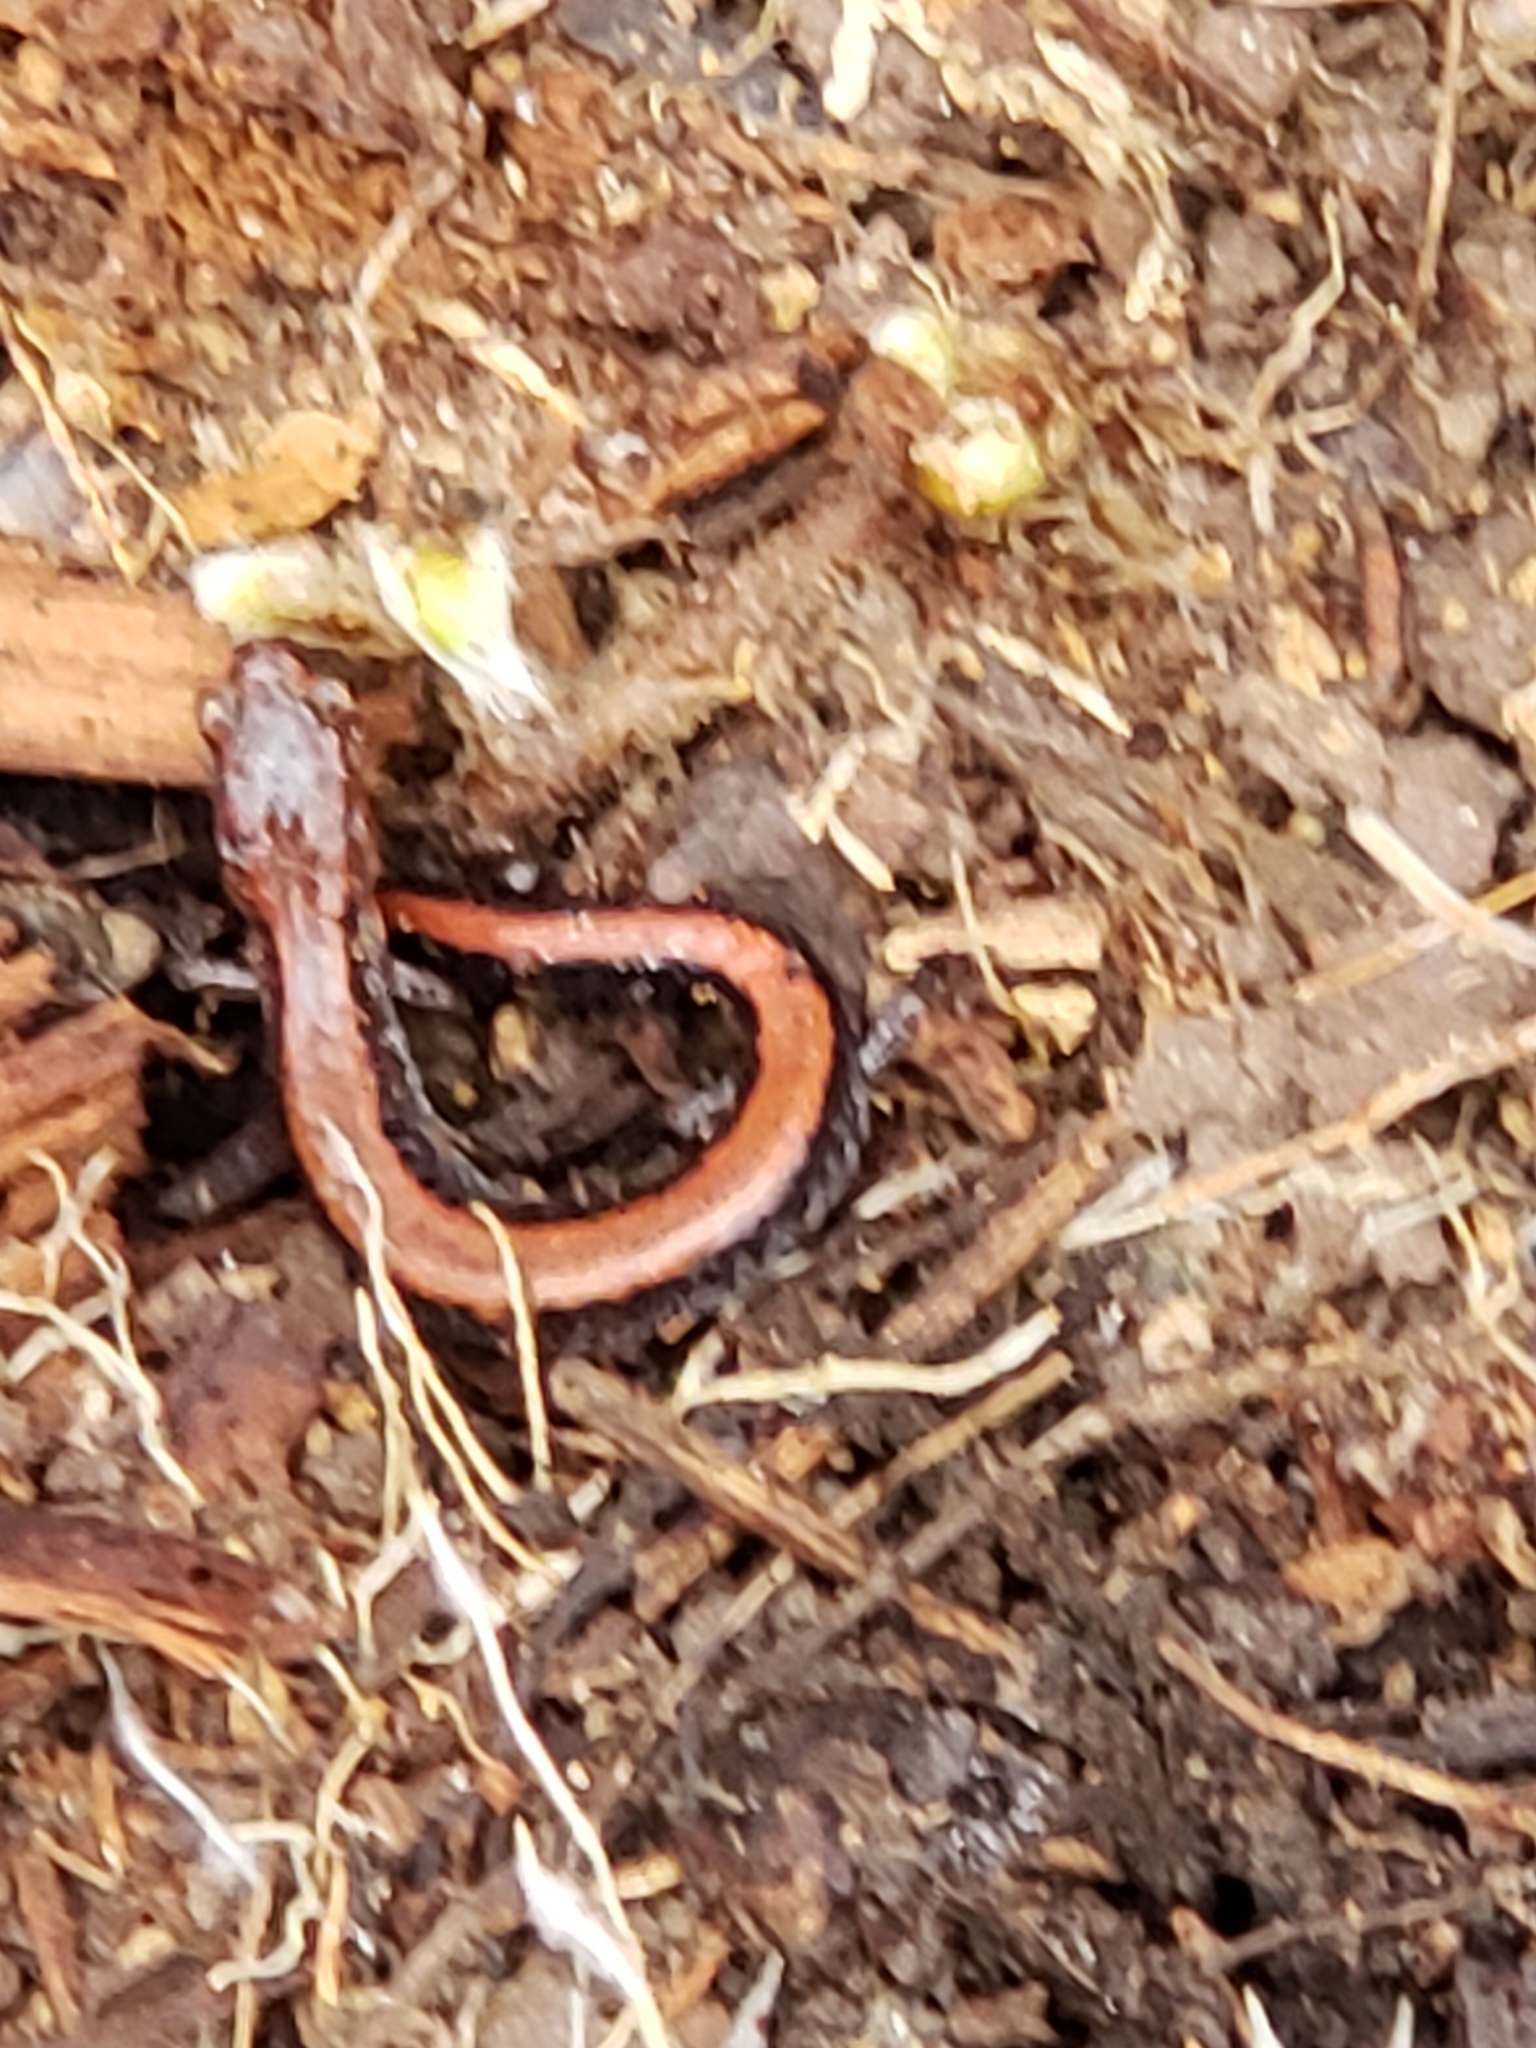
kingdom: Animalia
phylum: Chordata
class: Amphibia
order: Caudata
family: Plethodontidae
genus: Plethodon
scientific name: Plethodon cinereus
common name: Redback salamander
